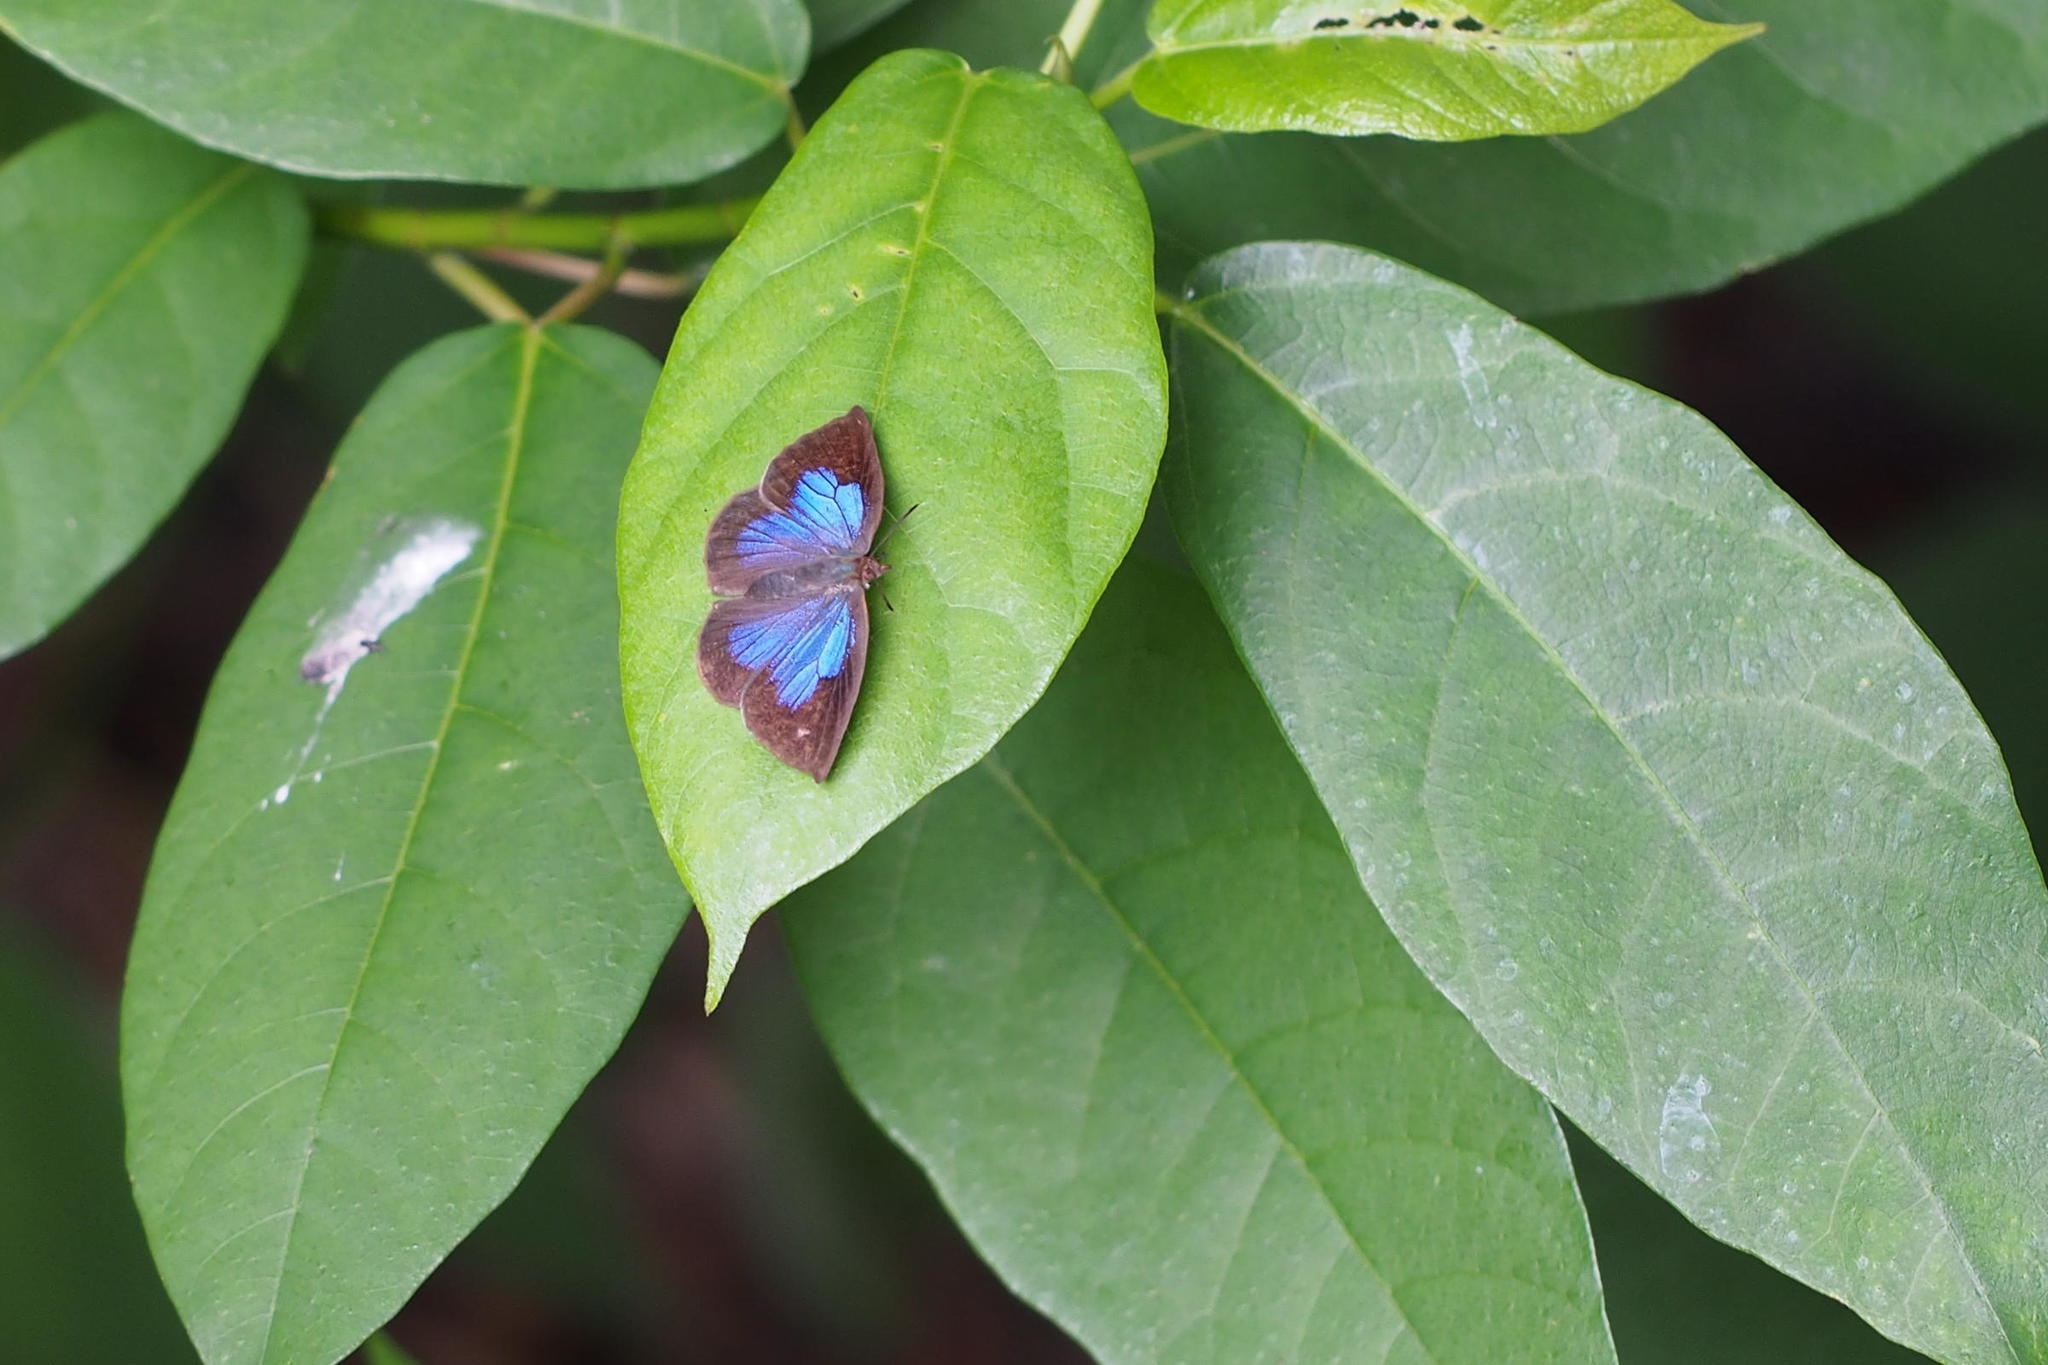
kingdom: Animalia
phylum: Arthropoda
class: Insecta
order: Lepidoptera
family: Lycaenidae
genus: Arhopala
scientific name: Arhopala japonica
